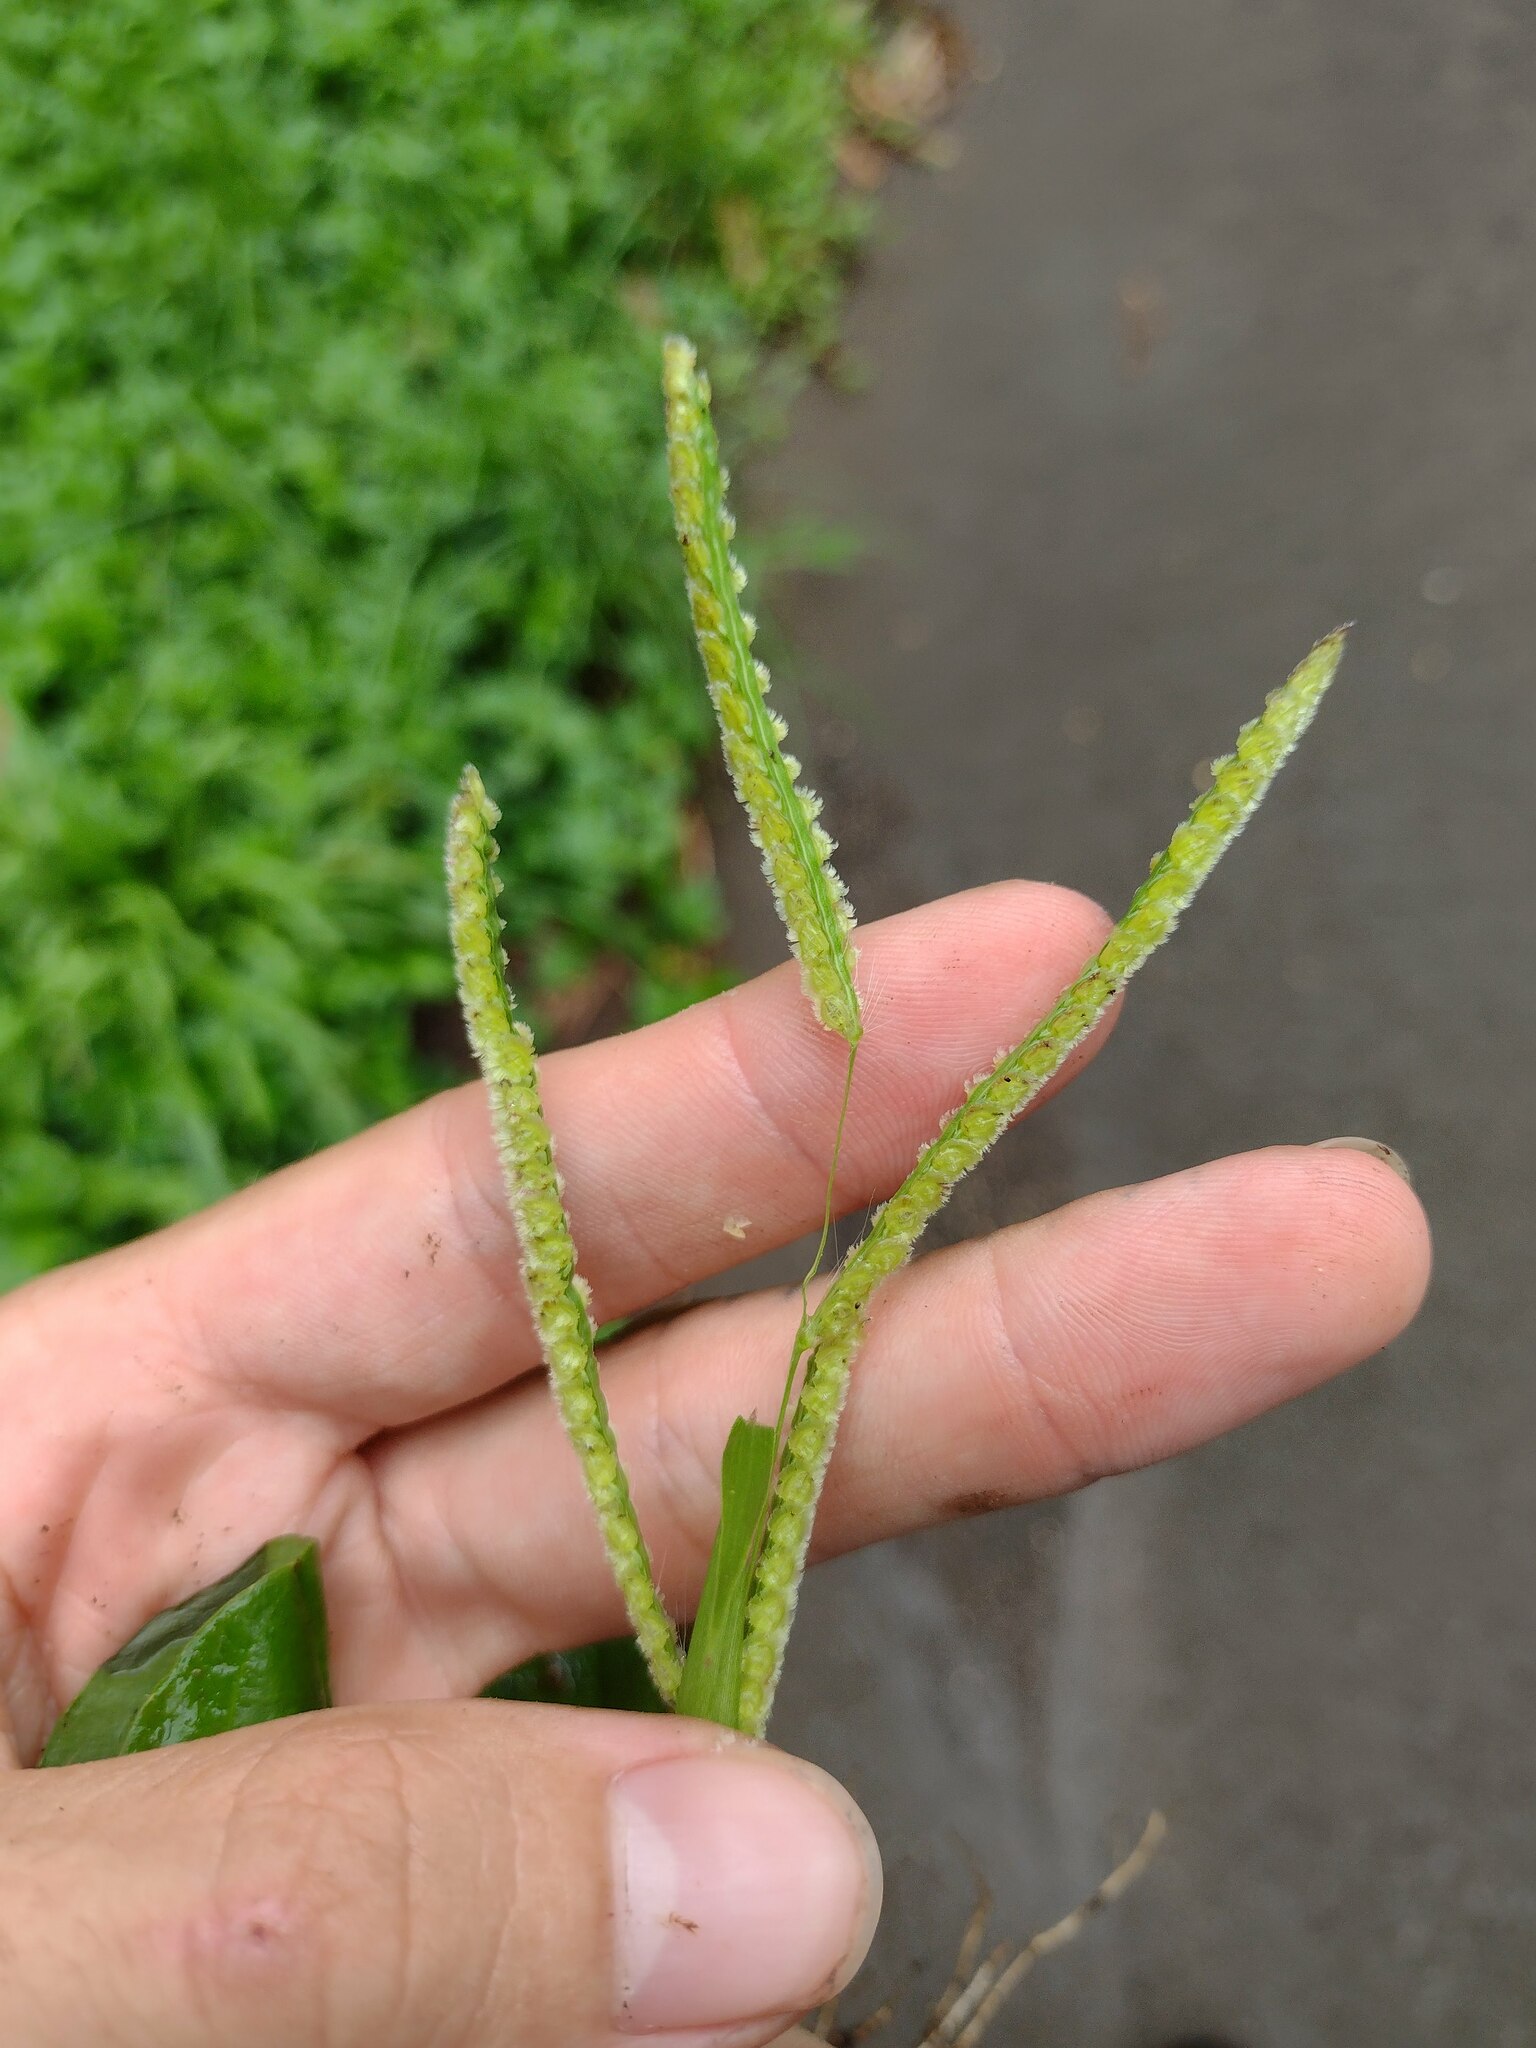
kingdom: Plantae
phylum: Tracheophyta
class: Liliopsida
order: Poales
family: Poaceae
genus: Paspalum
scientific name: Paspalum fimbriatum
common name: Panama crowngrass
